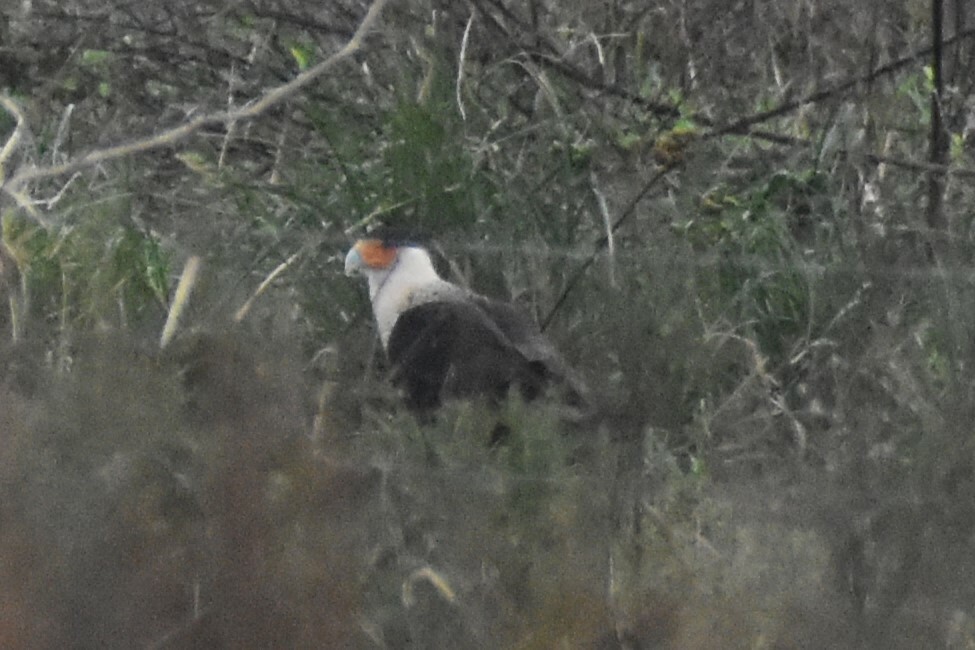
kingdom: Animalia
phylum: Chordata
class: Aves
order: Falconiformes
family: Falconidae
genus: Caracara
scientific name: Caracara plancus
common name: Southern caracara
